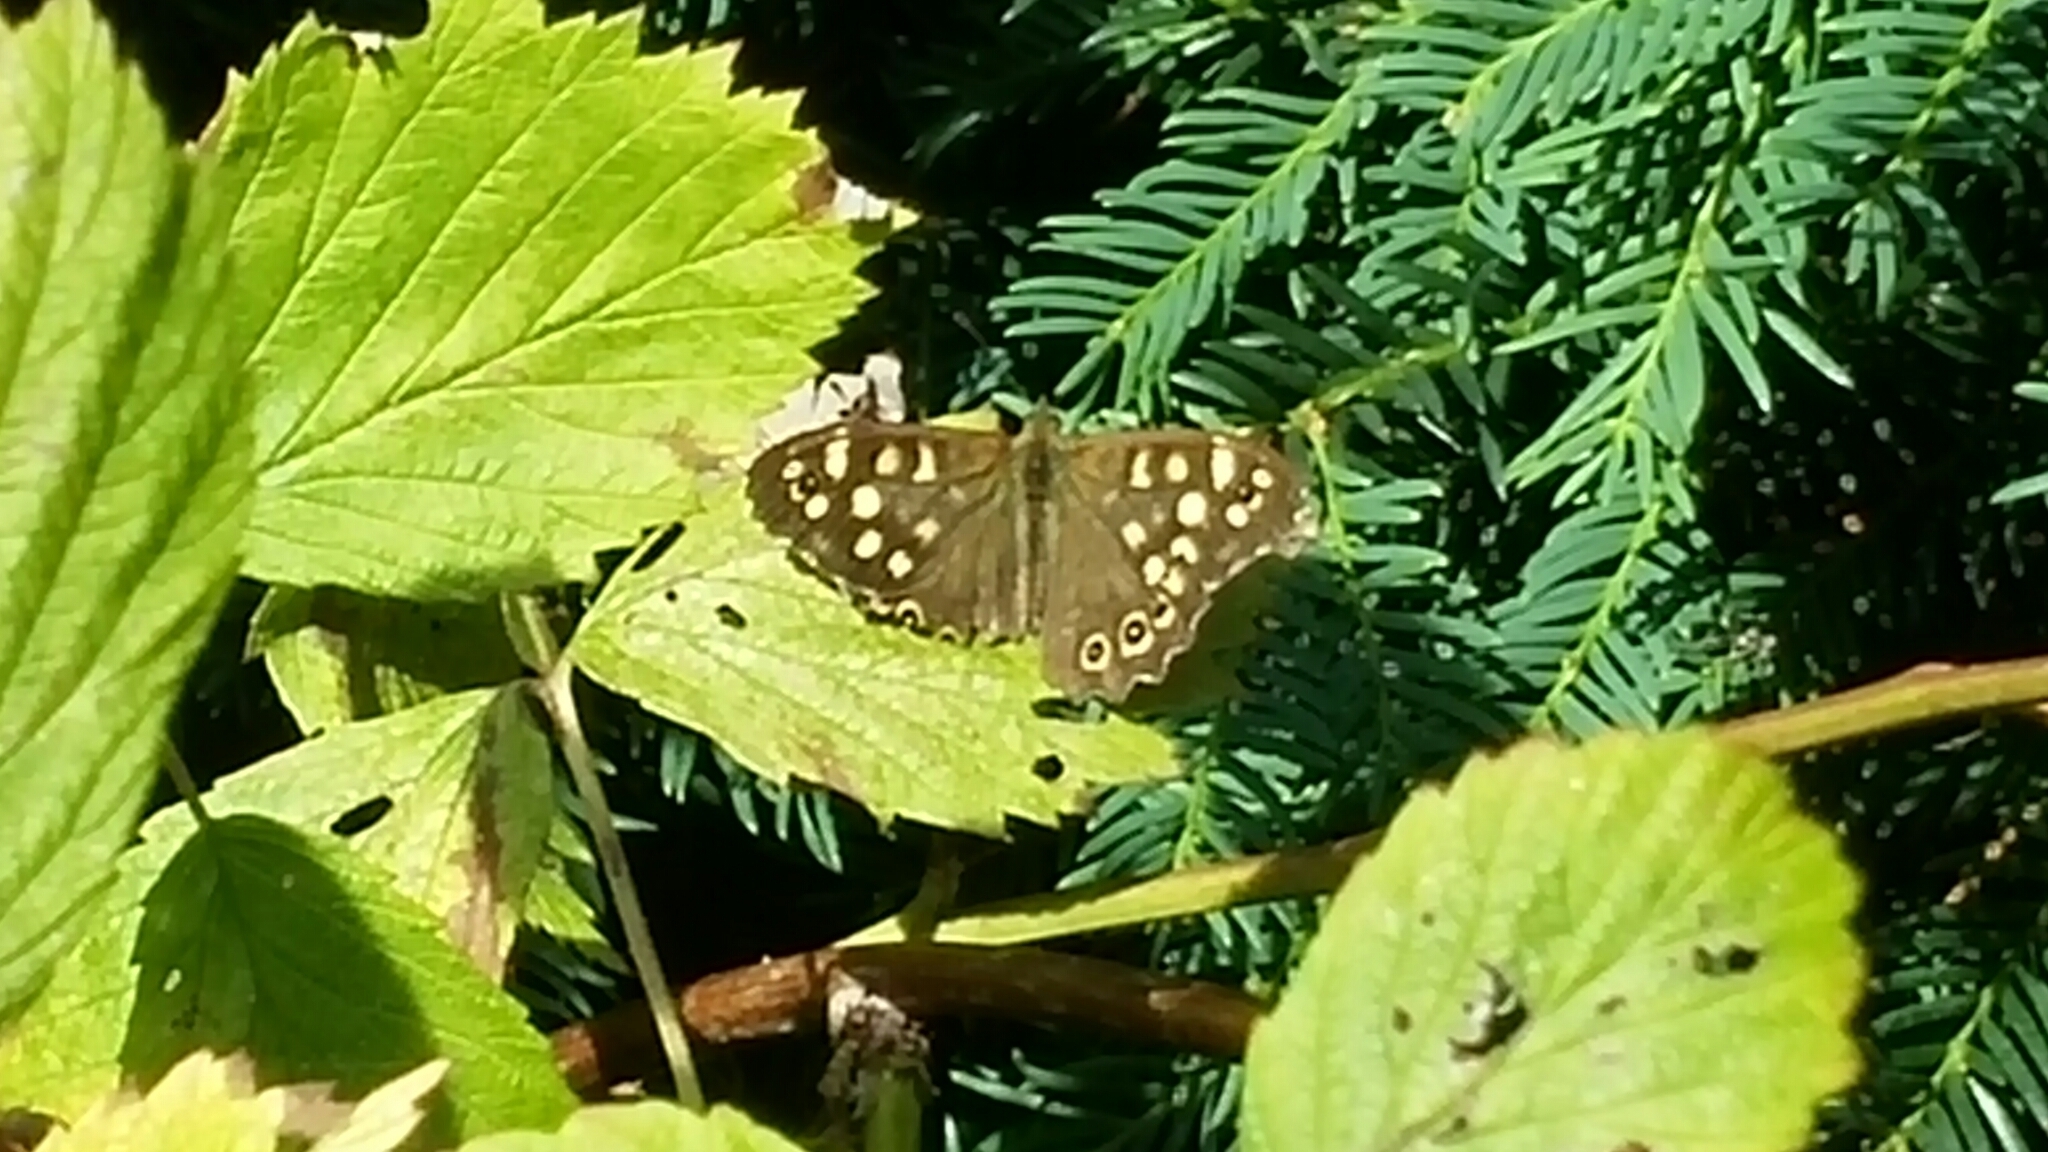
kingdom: Animalia
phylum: Arthropoda
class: Insecta
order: Lepidoptera
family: Nymphalidae
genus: Pararge
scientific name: Pararge aegeria
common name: Speckled wood
